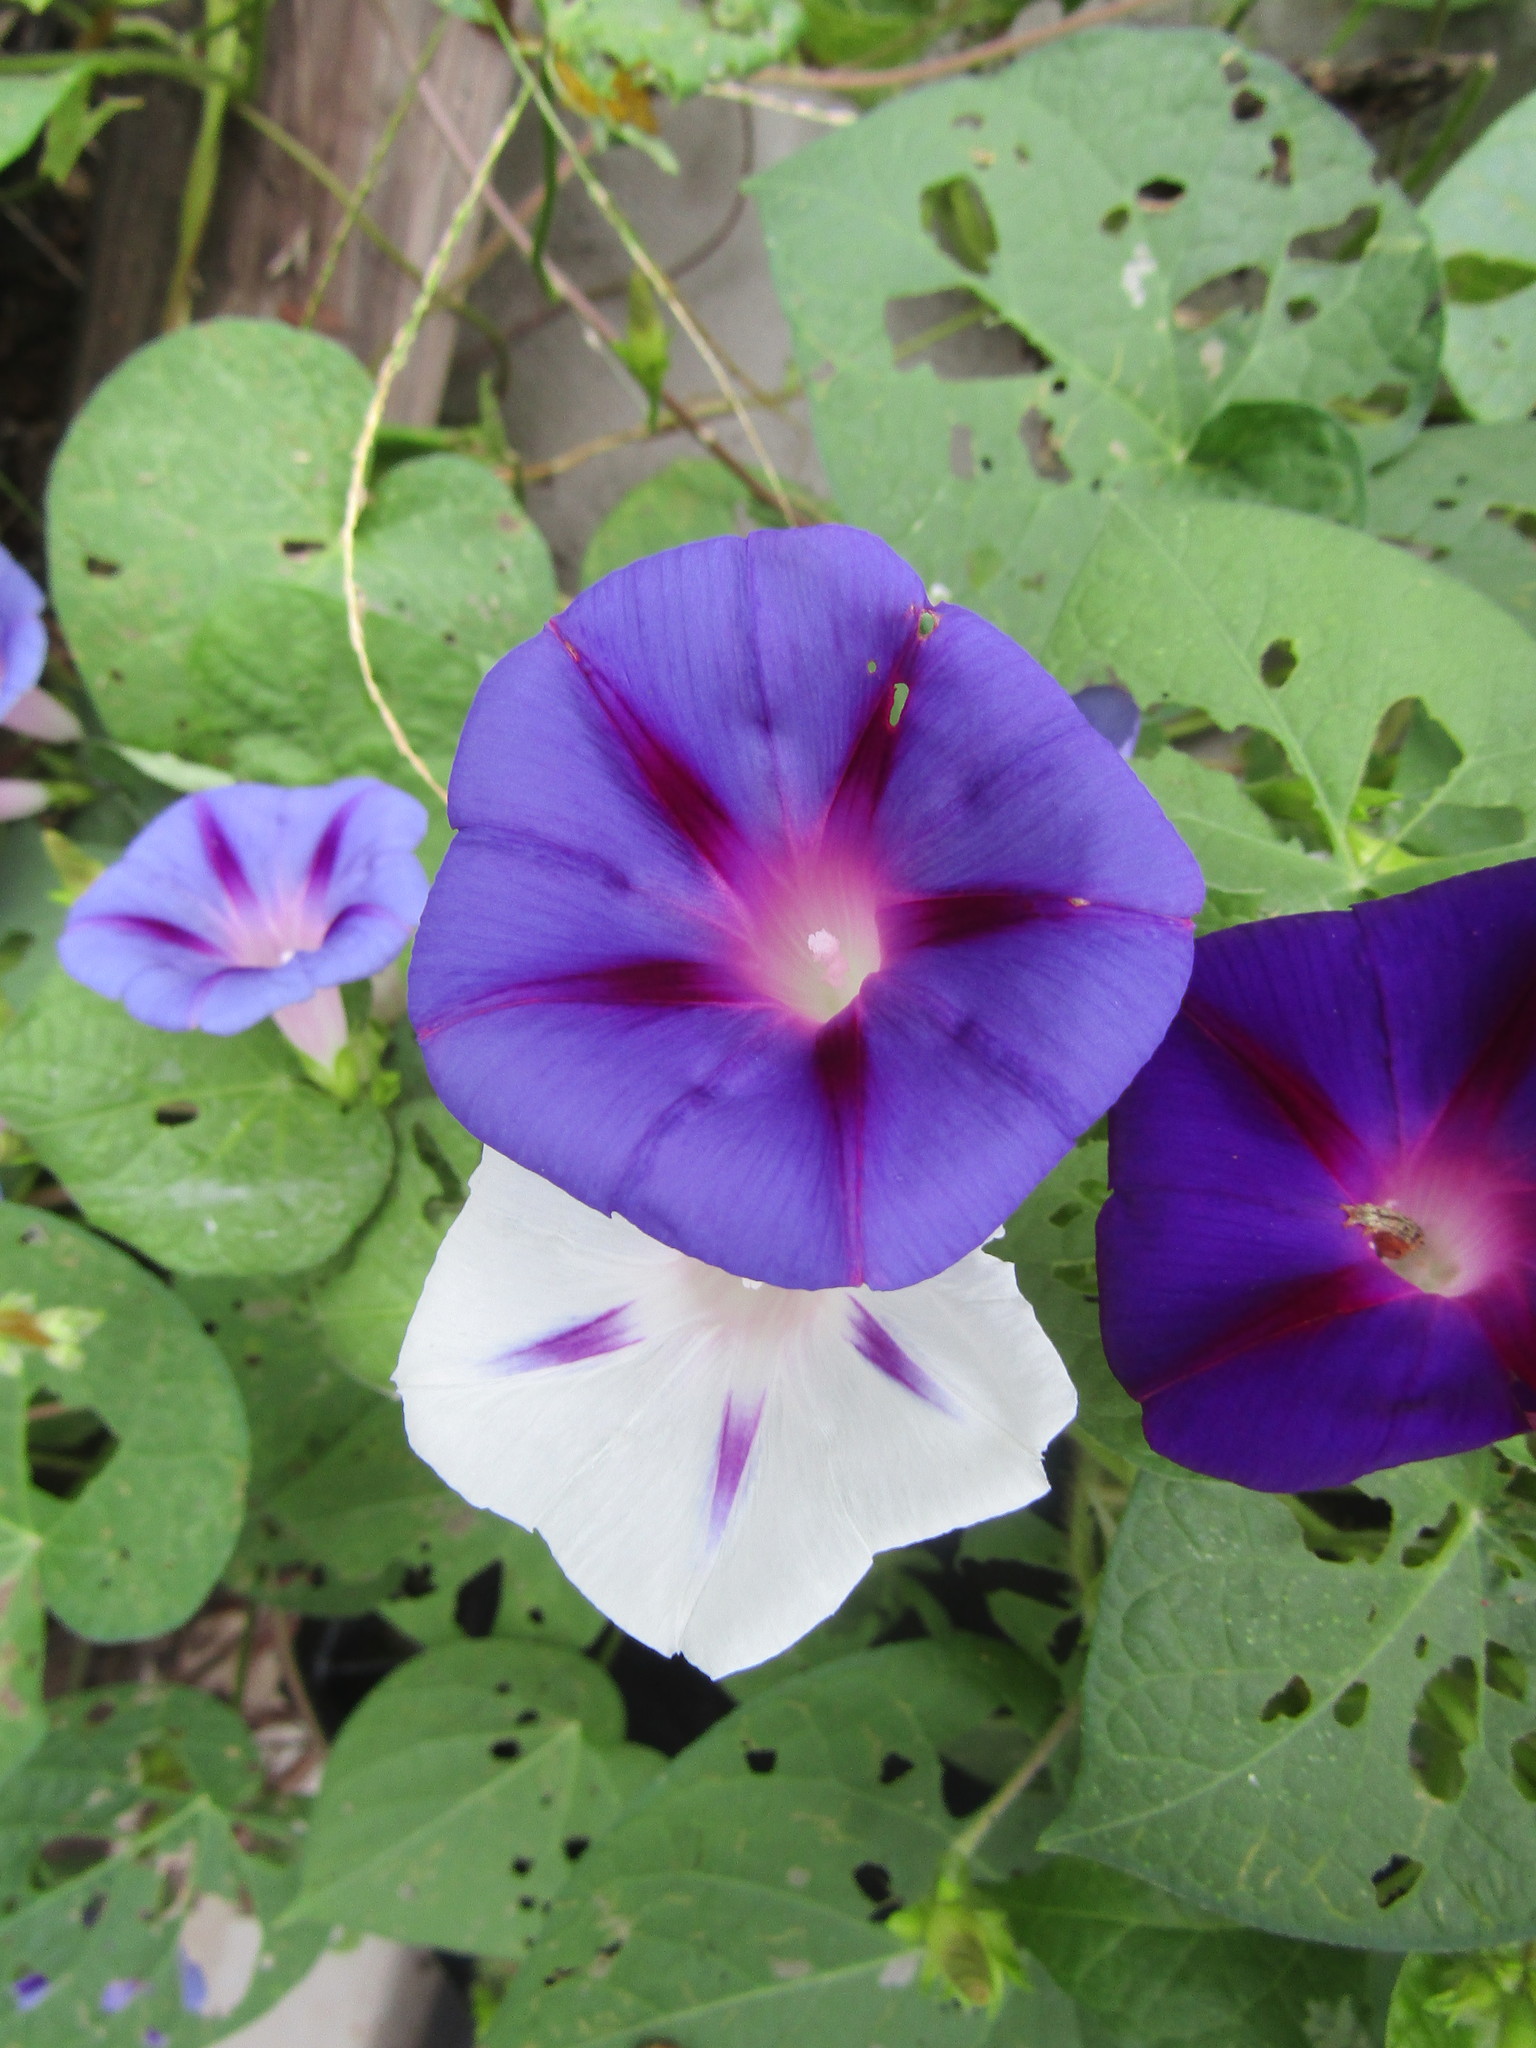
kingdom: Plantae
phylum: Tracheophyta
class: Magnoliopsida
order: Solanales
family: Convolvulaceae
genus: Ipomoea
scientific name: Ipomoea purpurea
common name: Common morning-glory
